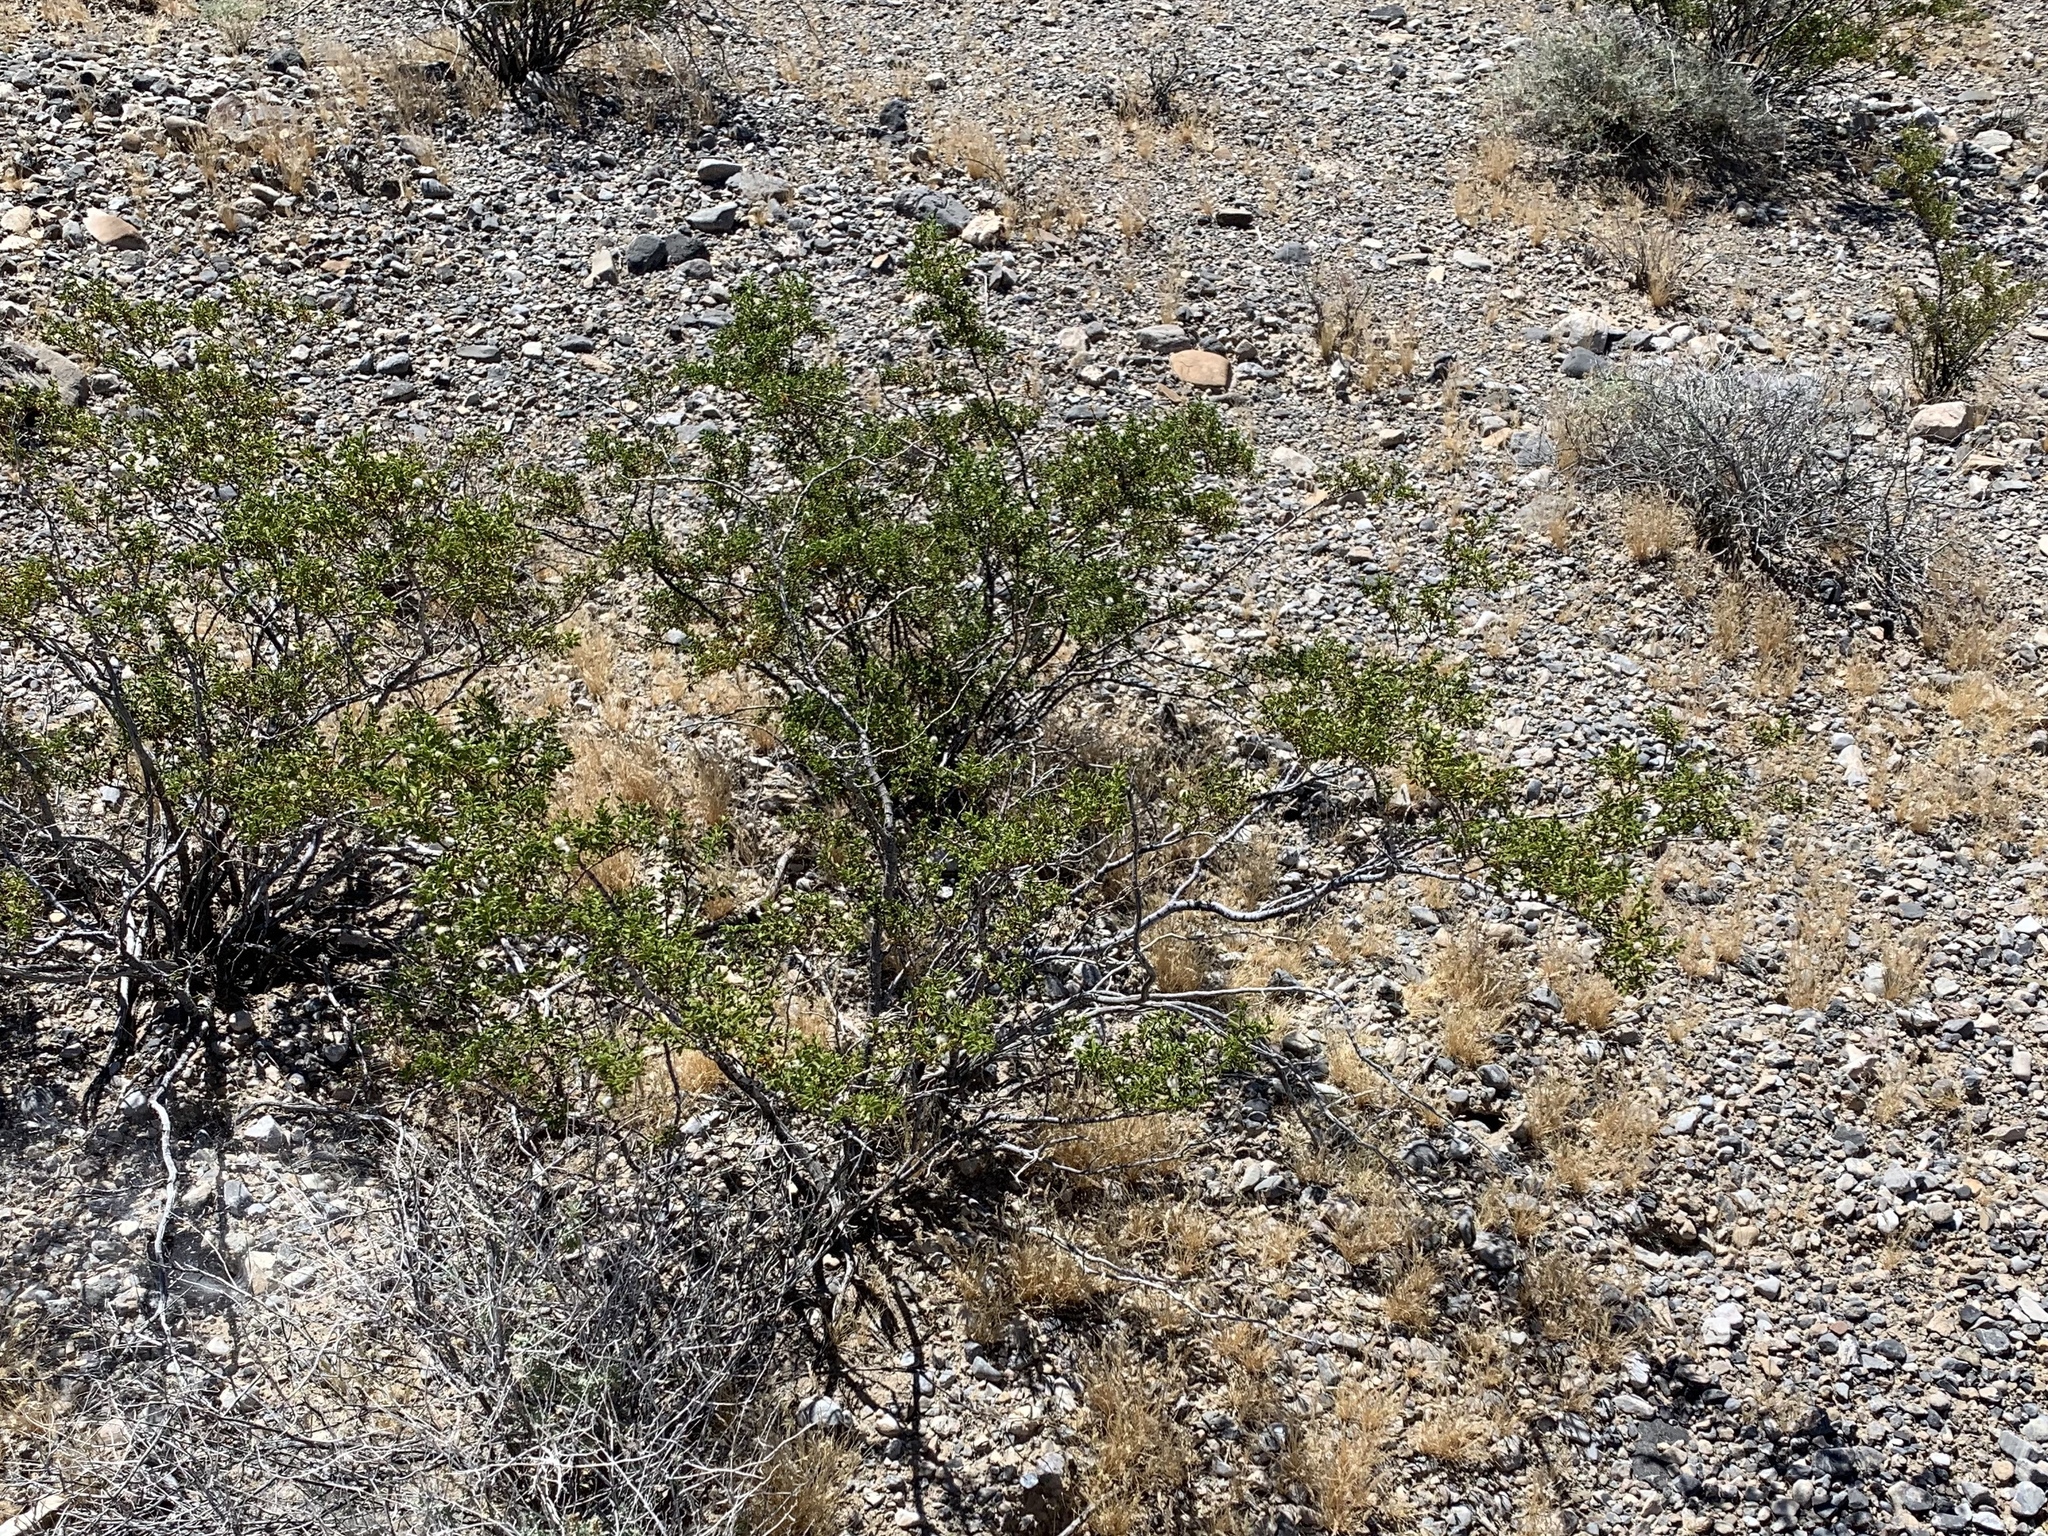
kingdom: Plantae
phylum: Tracheophyta
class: Magnoliopsida
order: Zygophyllales
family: Zygophyllaceae
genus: Larrea
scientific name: Larrea tridentata
